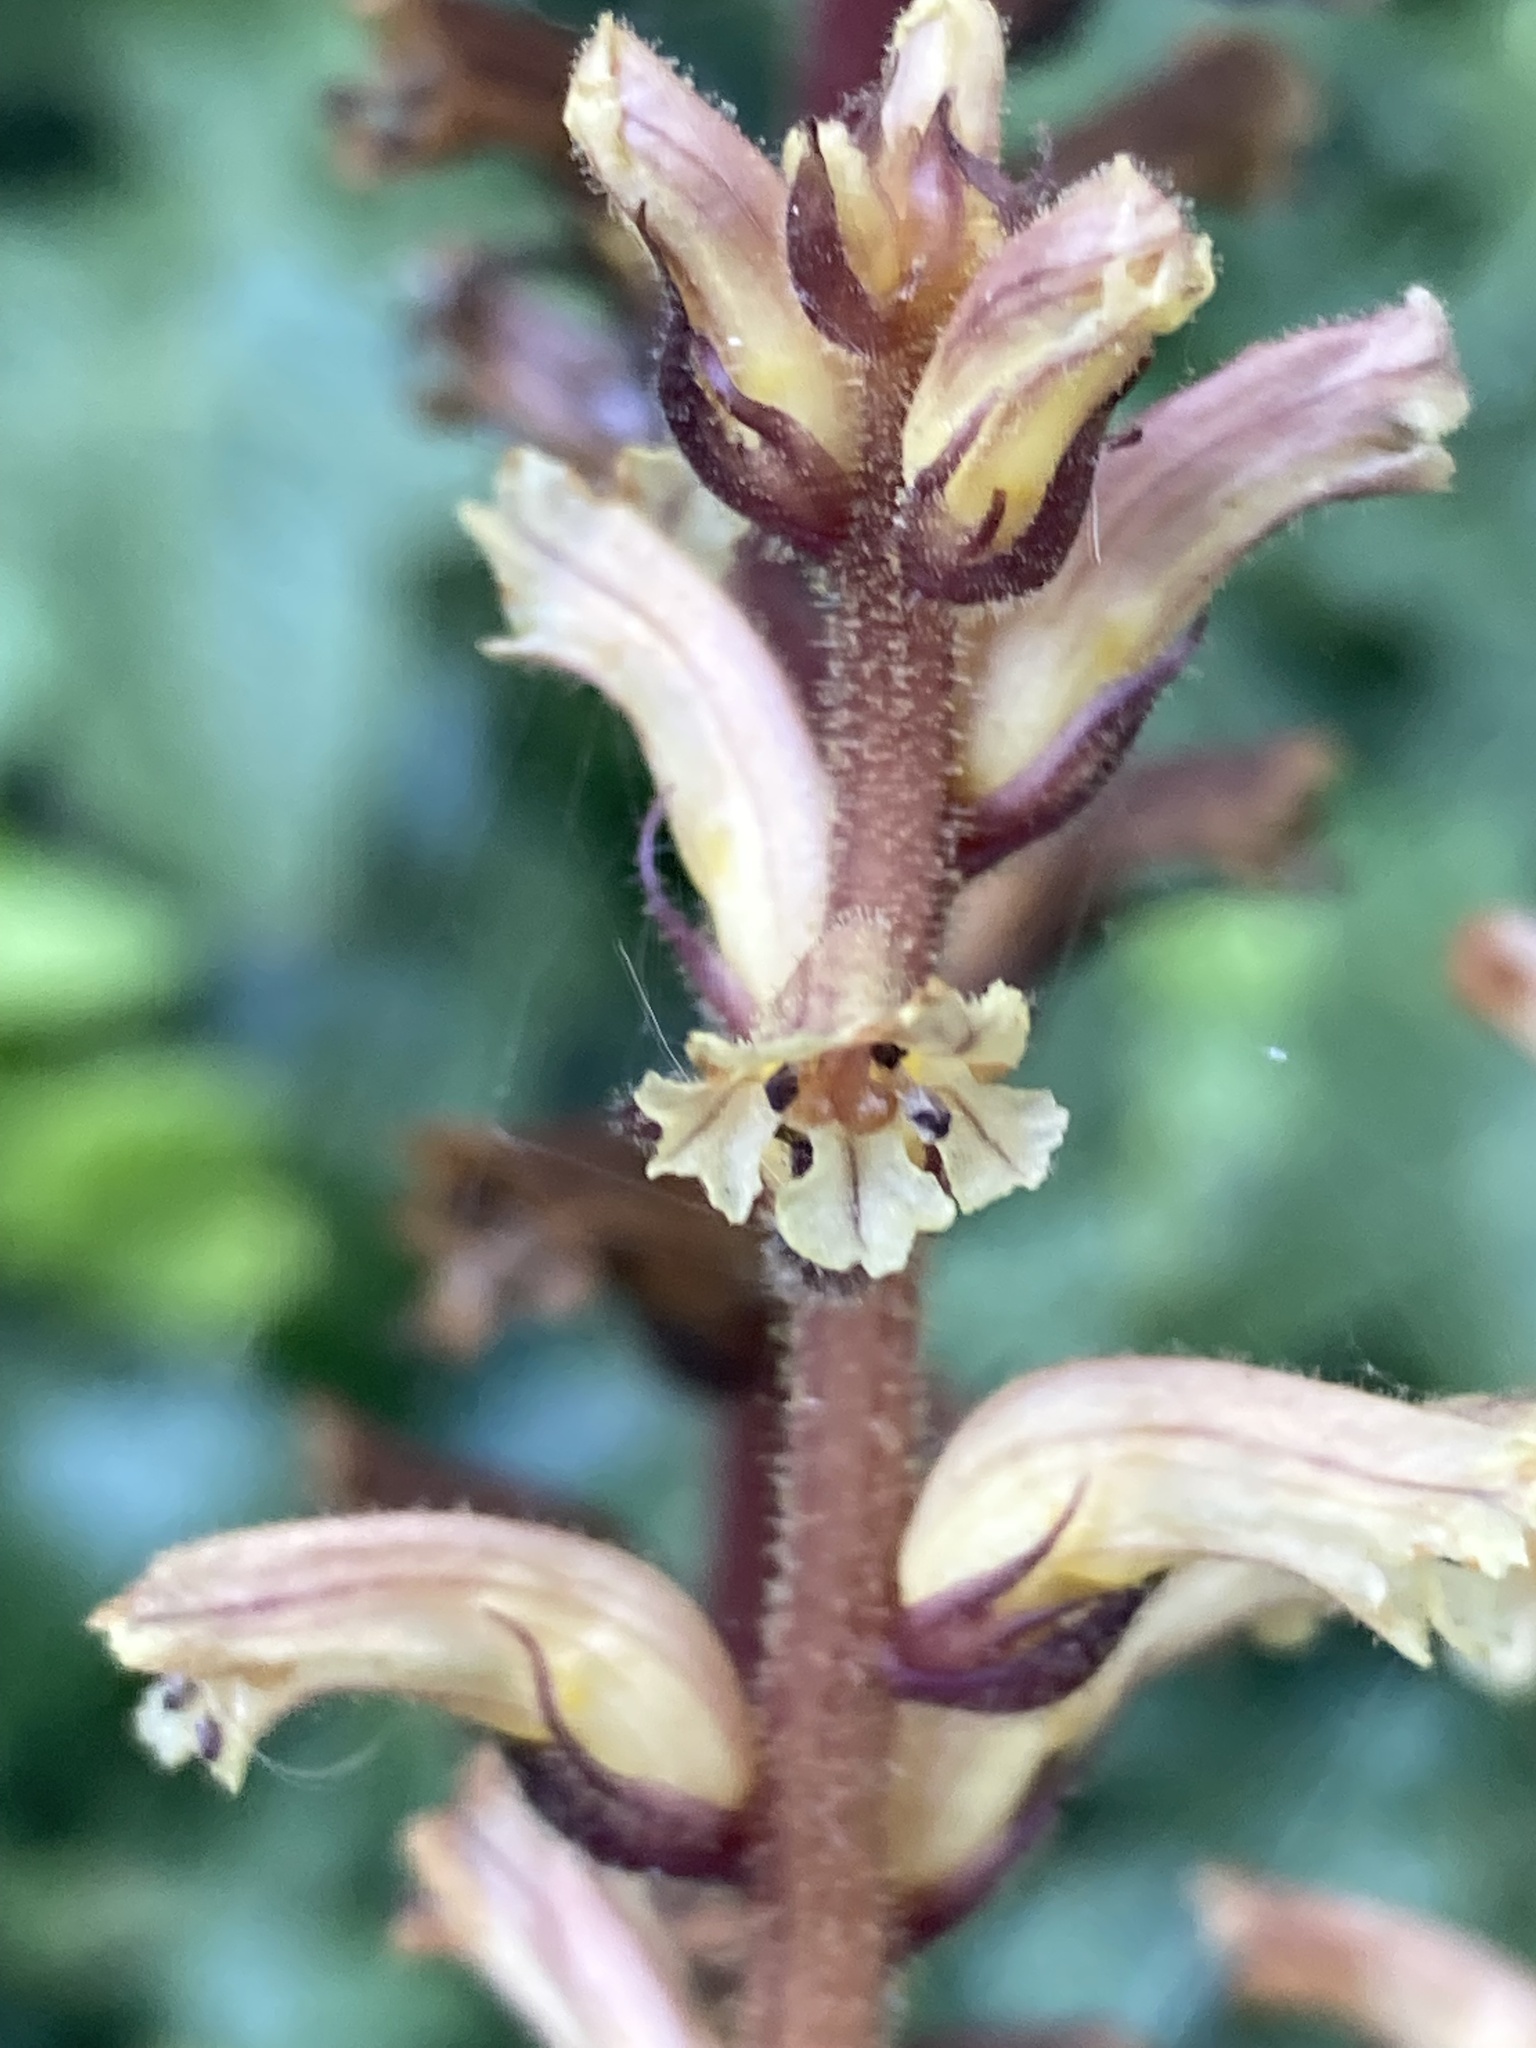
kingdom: Plantae
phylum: Tracheophyta
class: Magnoliopsida
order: Lamiales
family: Orobanchaceae
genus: Orobanche
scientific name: Orobanche hederae
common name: Ivy broomrape
